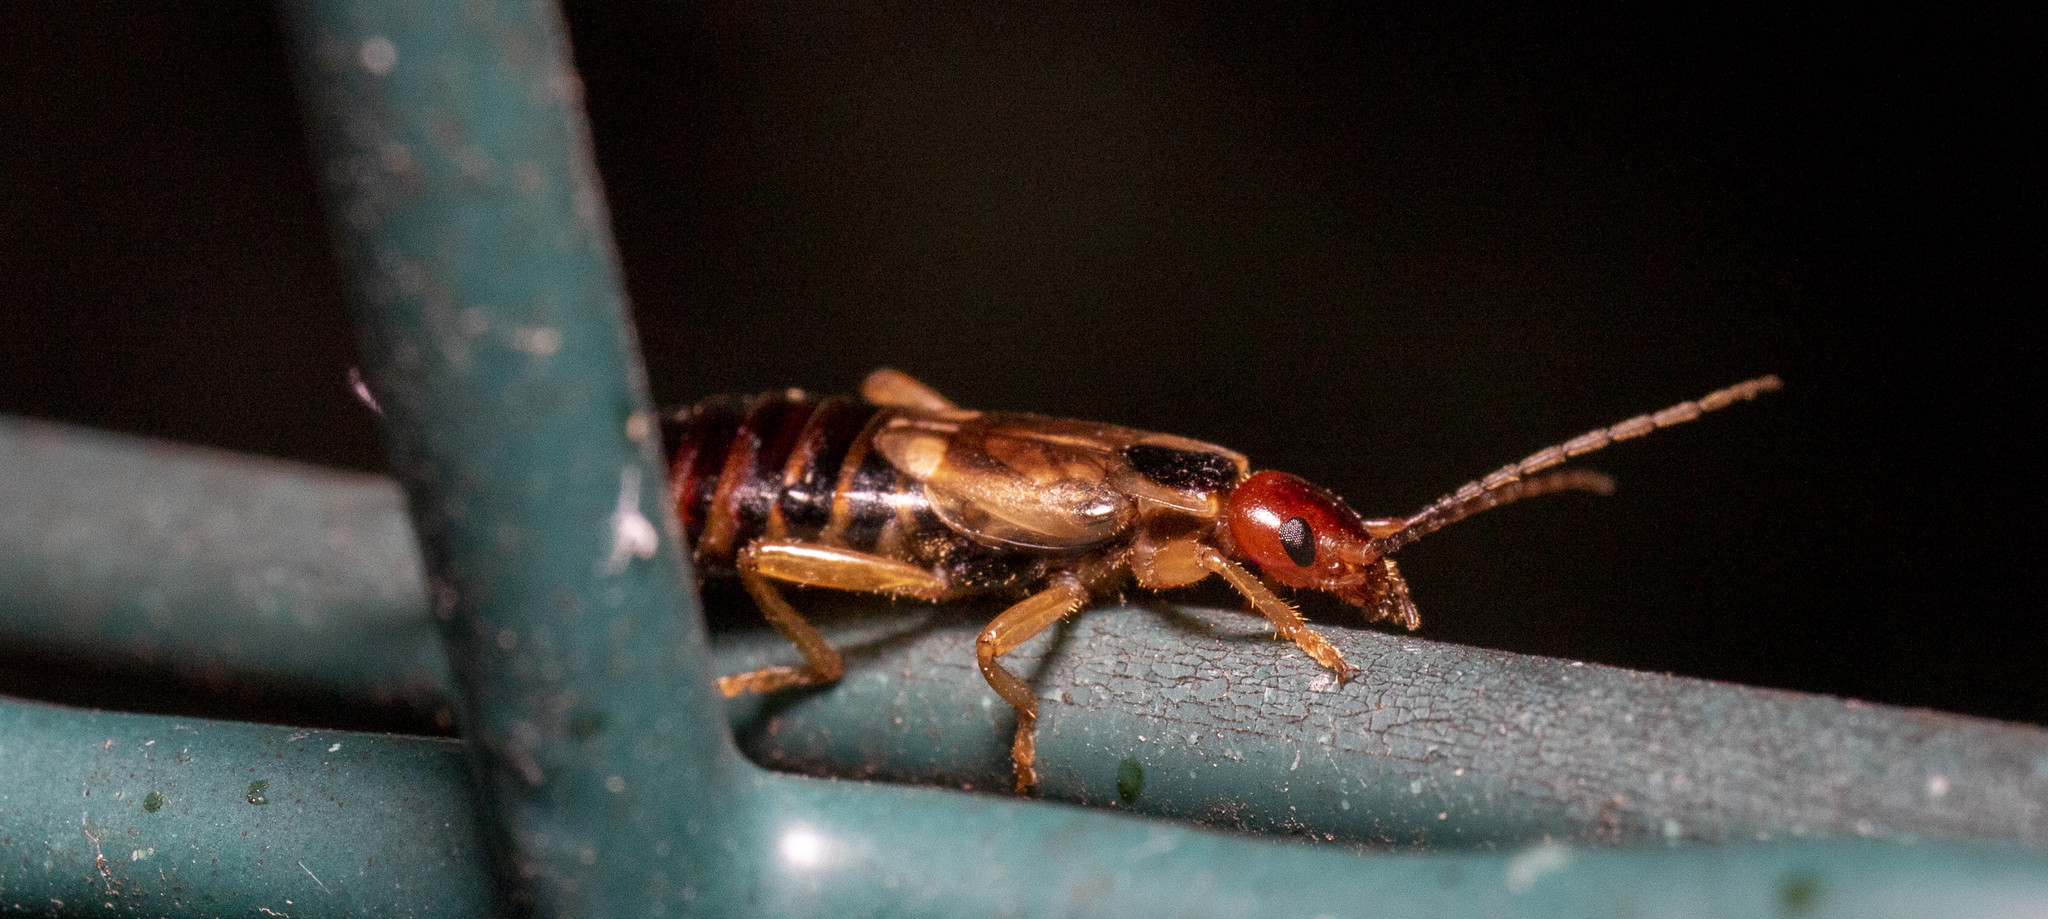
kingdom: Animalia
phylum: Arthropoda
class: Insecta
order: Dermaptera
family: Forficulidae
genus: Forficula
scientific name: Forficula
